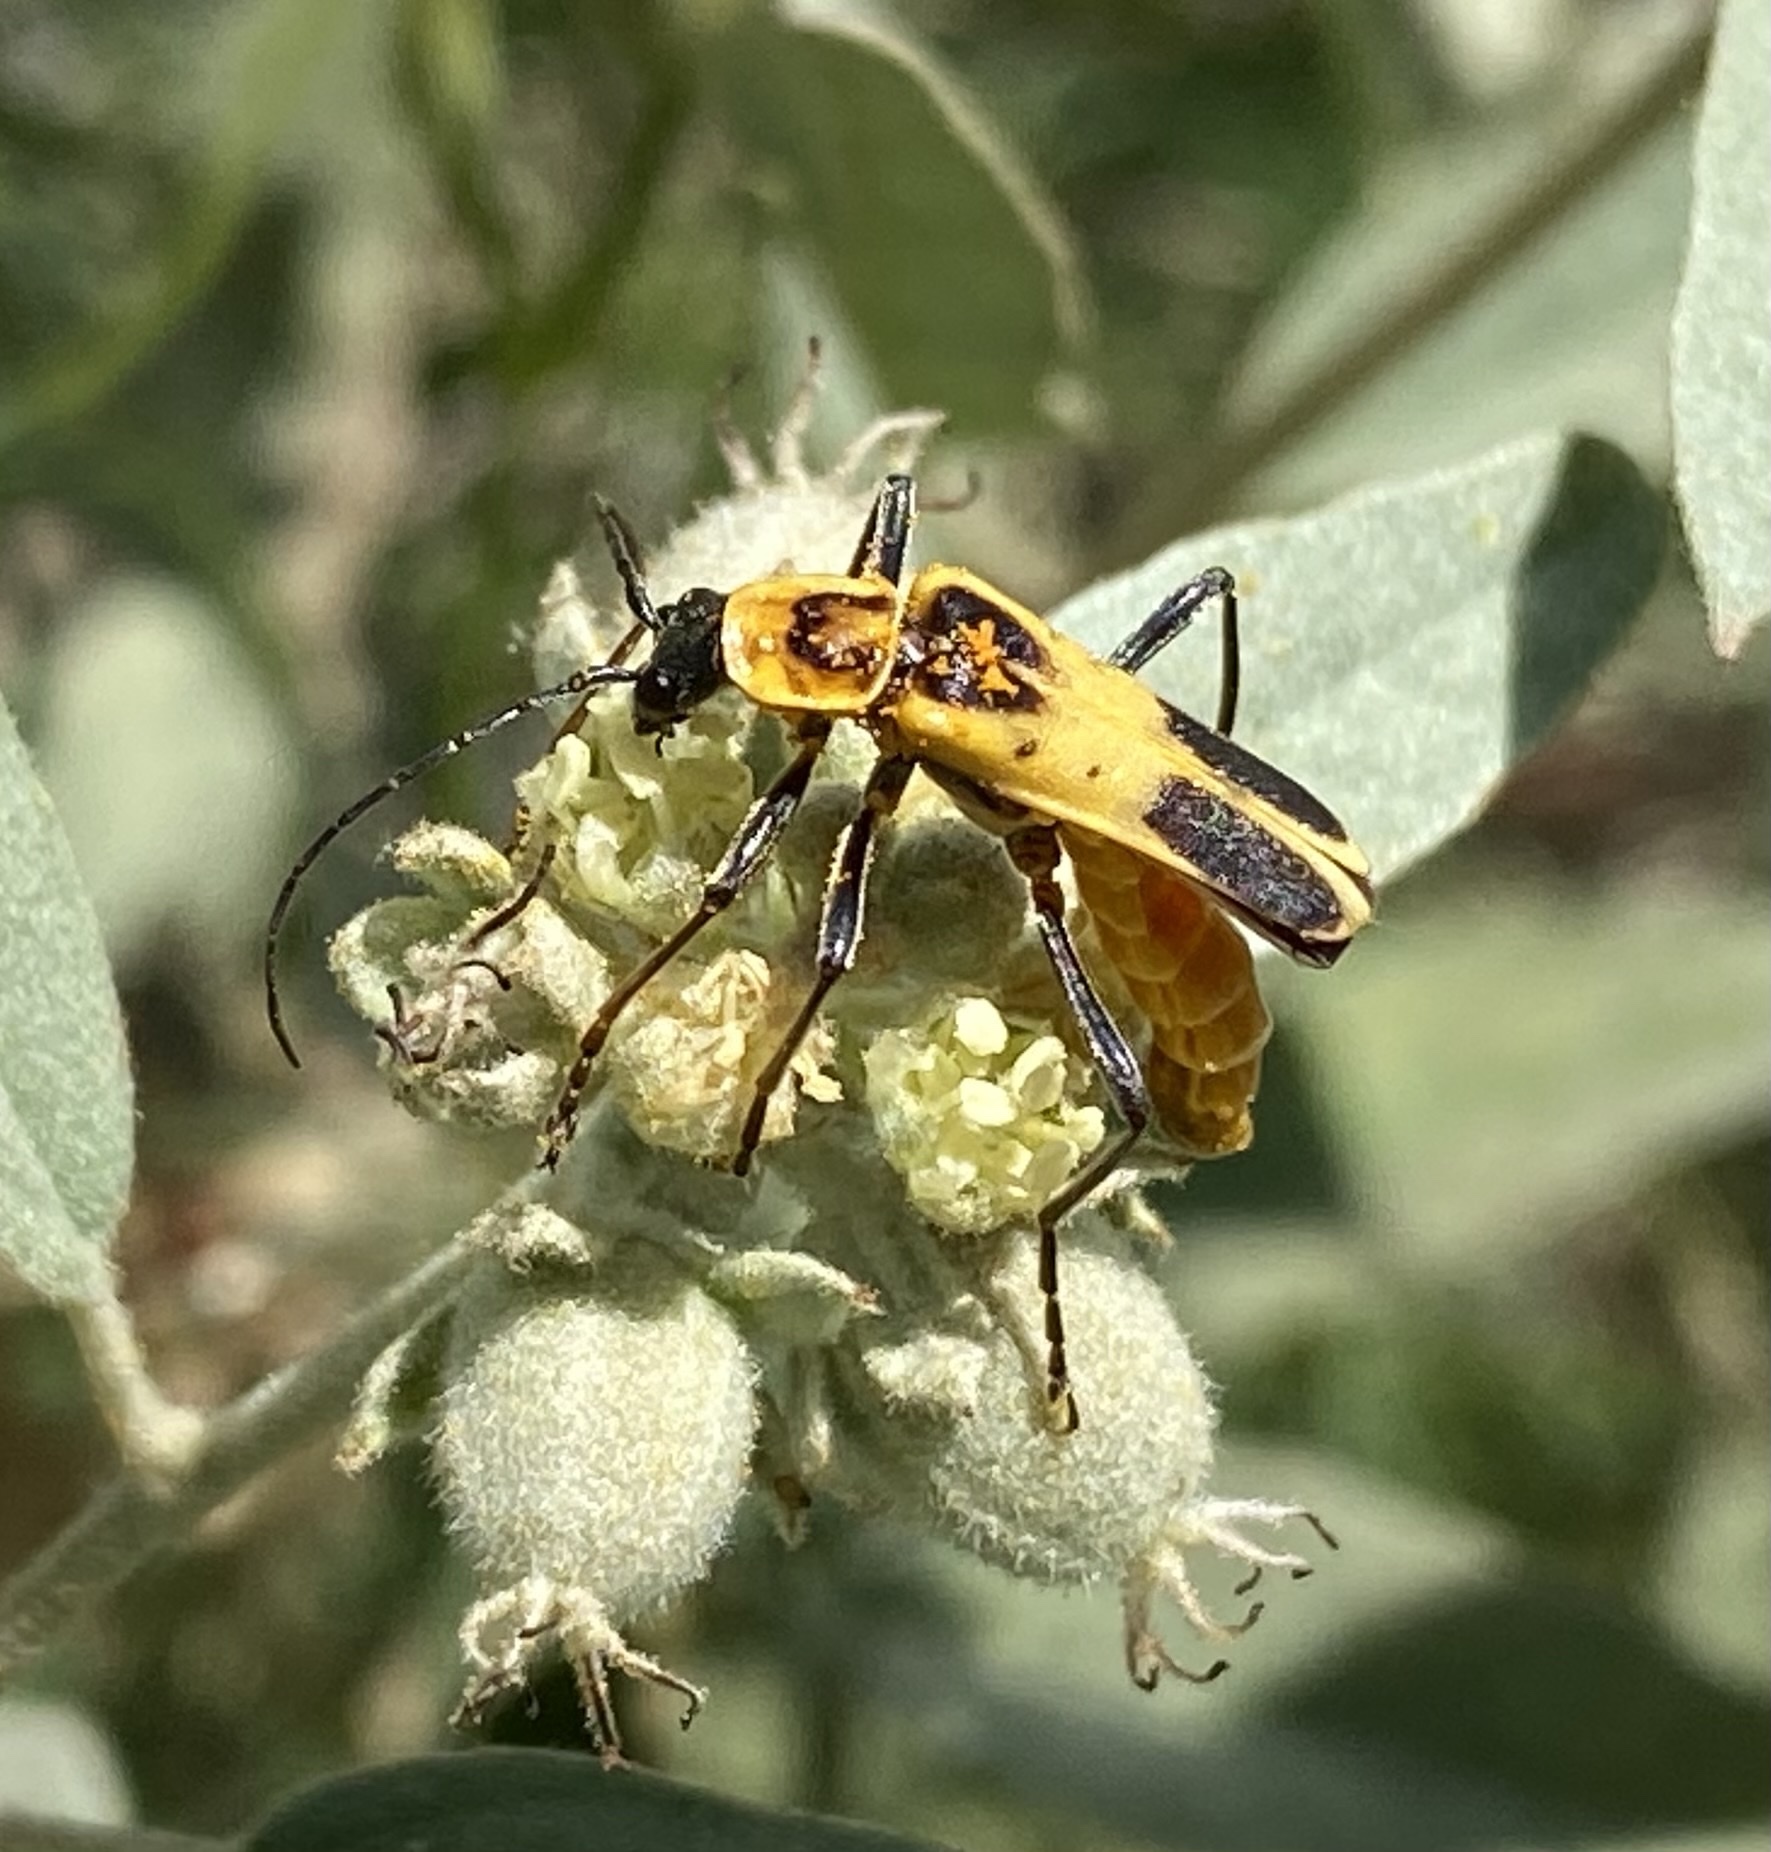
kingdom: Animalia
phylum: Arthropoda
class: Insecta
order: Coleoptera
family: Cantharidae
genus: Chauliognathus
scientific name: Chauliognathus omissus
